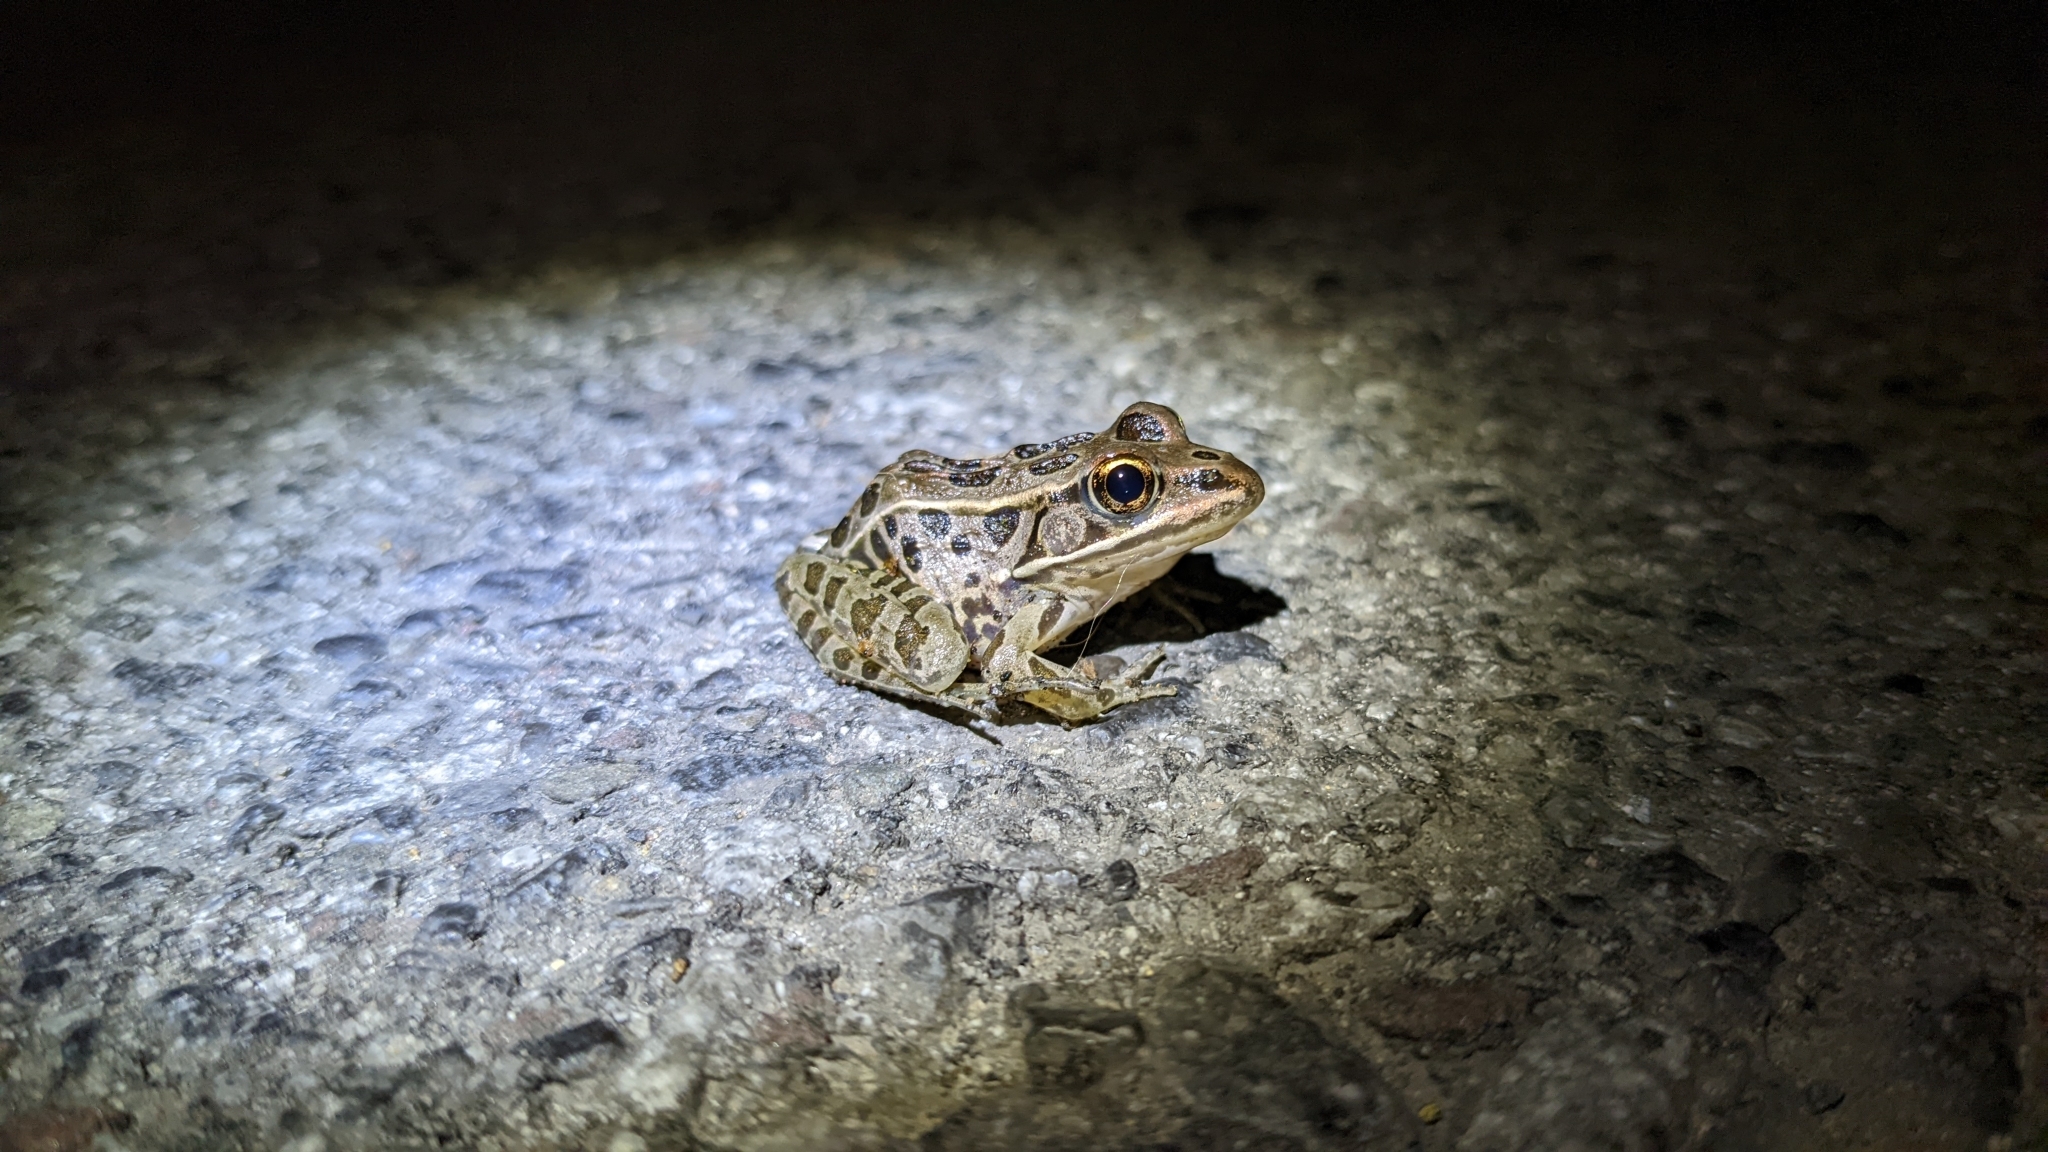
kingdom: Animalia
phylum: Chordata
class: Amphibia
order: Anura
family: Ranidae
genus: Lithobates
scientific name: Lithobates pipiens
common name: Northern leopard frog
